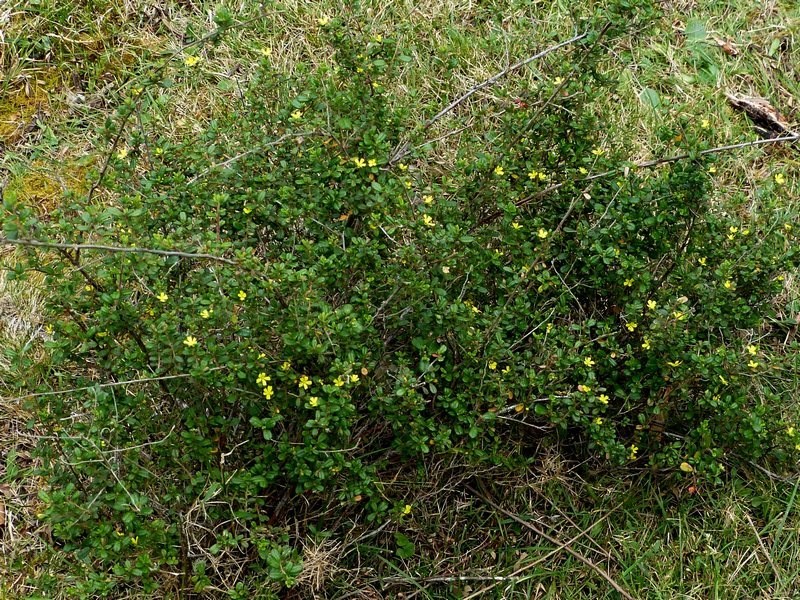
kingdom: Plantae
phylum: Tracheophyta
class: Magnoliopsida
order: Dilleniales
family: Dilleniaceae
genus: Hibbertia
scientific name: Hibbertia aspera
